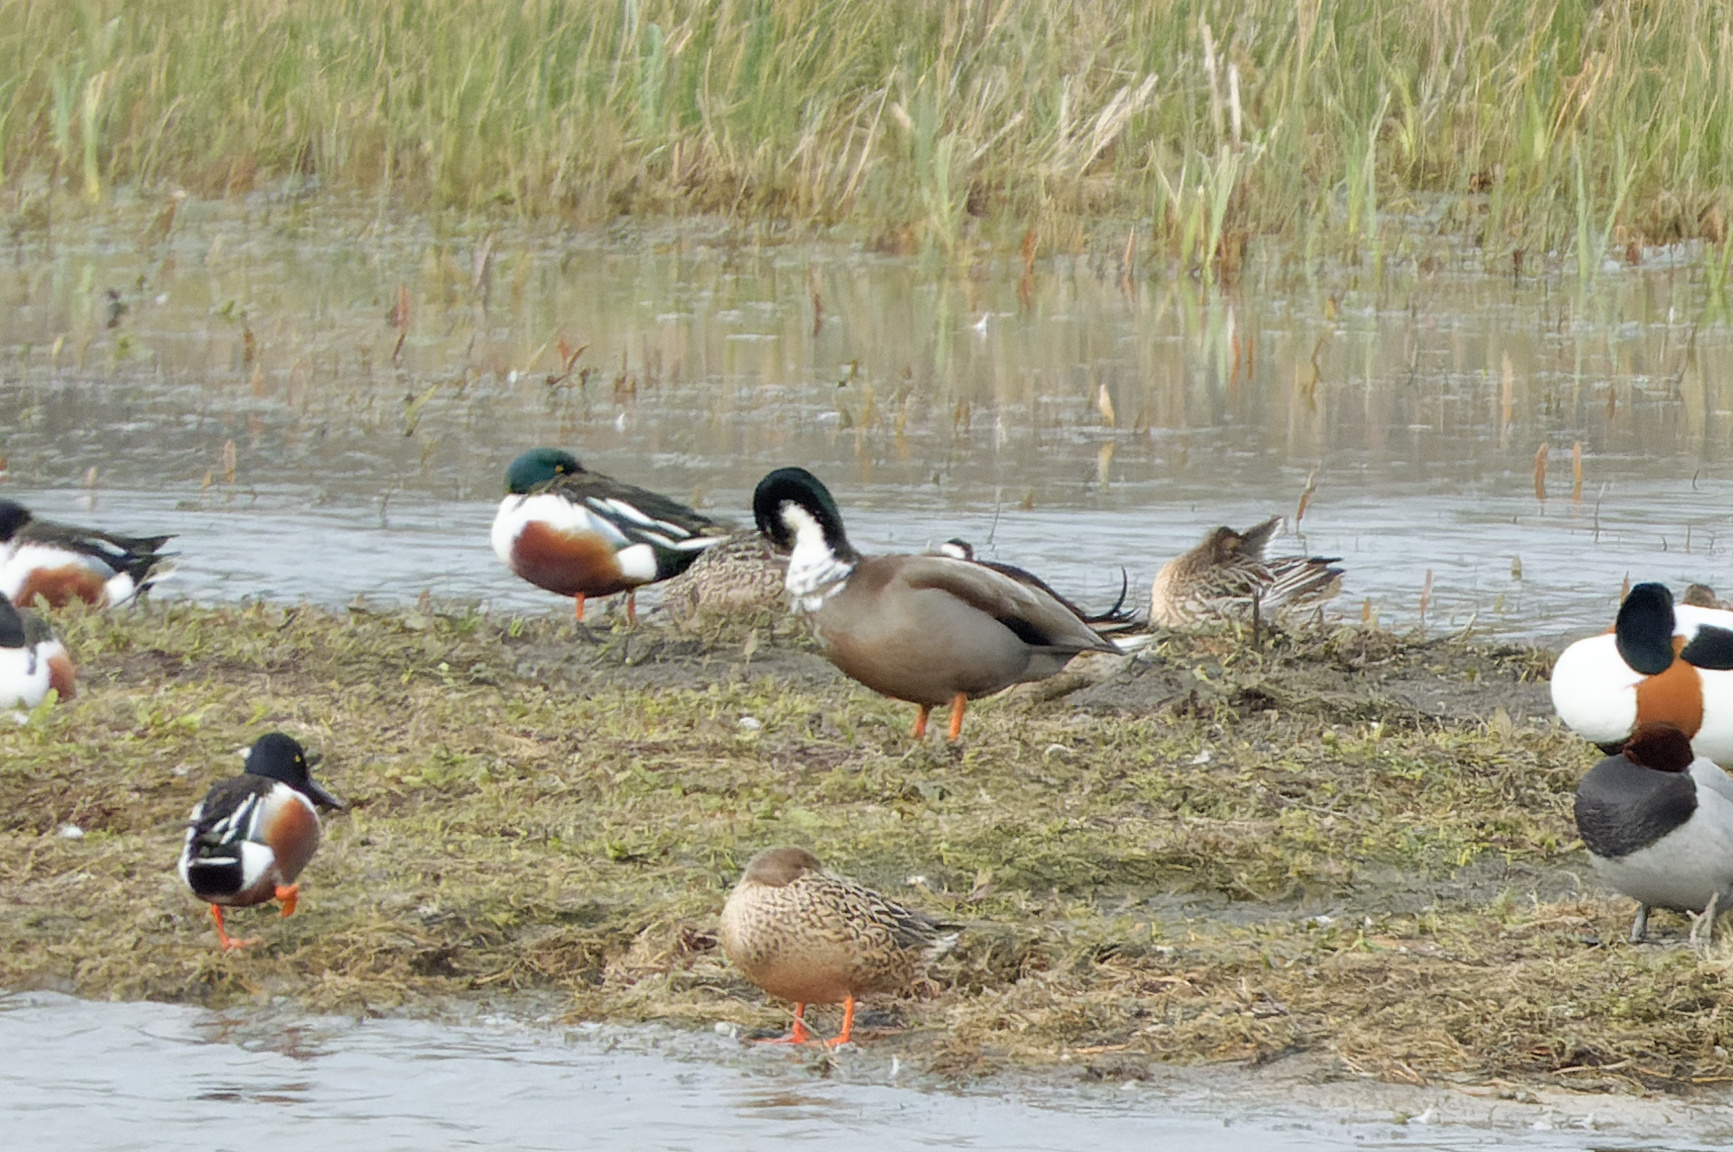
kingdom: Animalia
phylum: Chordata
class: Aves
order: Anseriformes
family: Anatidae
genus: Anas
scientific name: Anas
